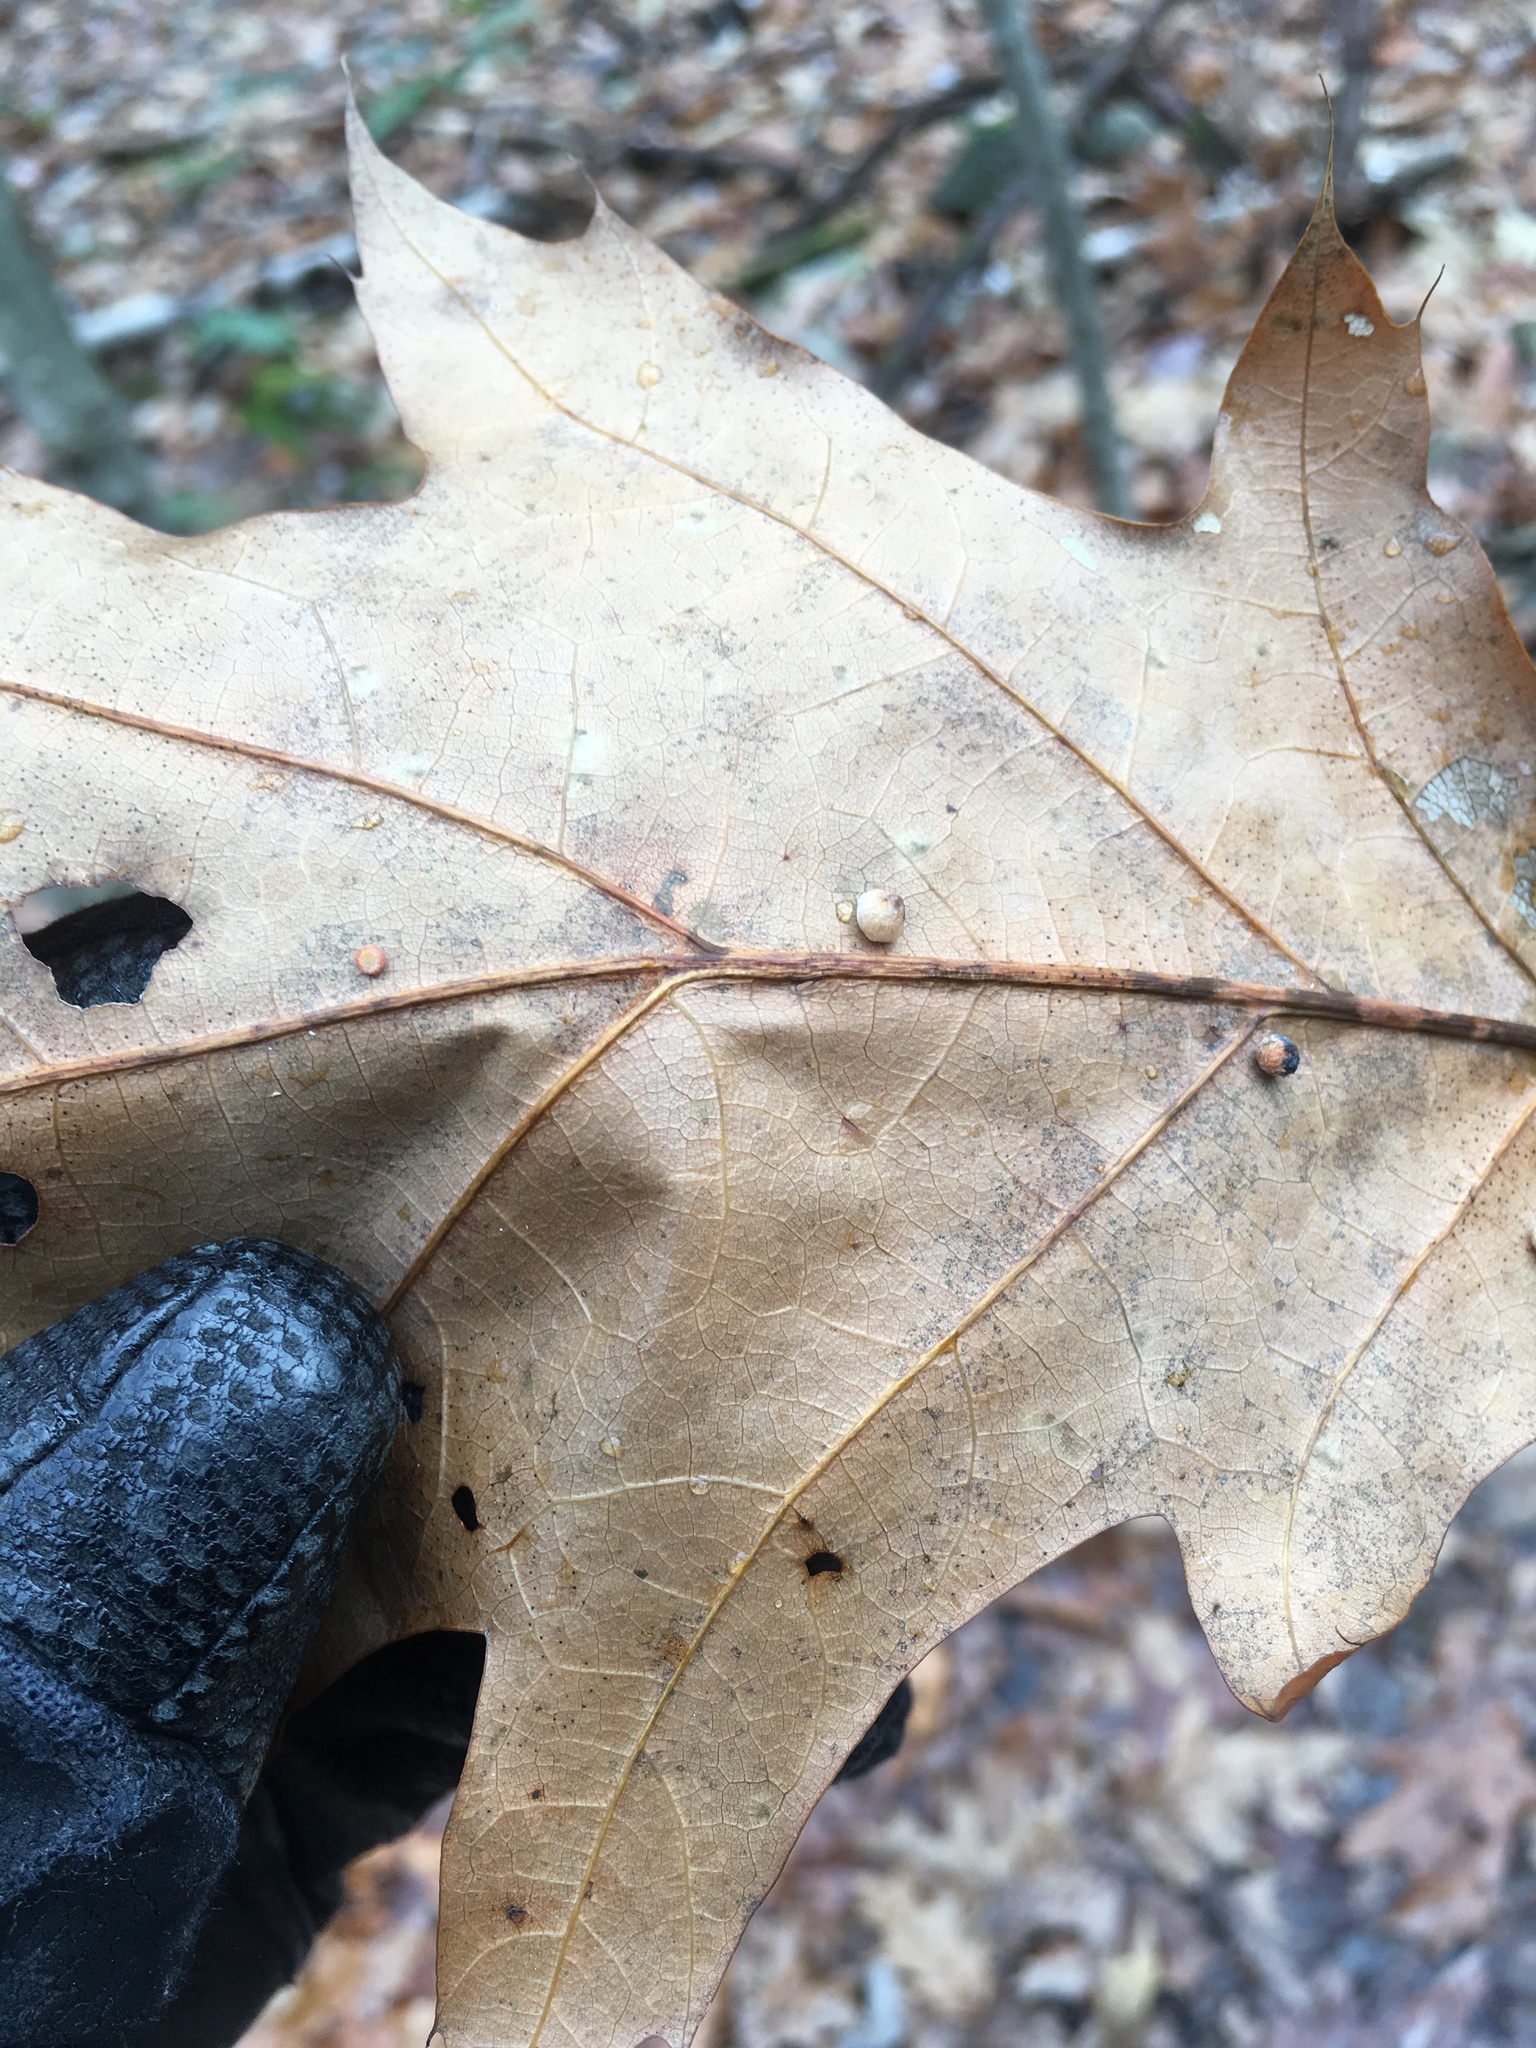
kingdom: Animalia
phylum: Arthropoda
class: Insecta
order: Hymenoptera
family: Cynipidae
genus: Zopheroteras
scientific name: Zopheroteras
